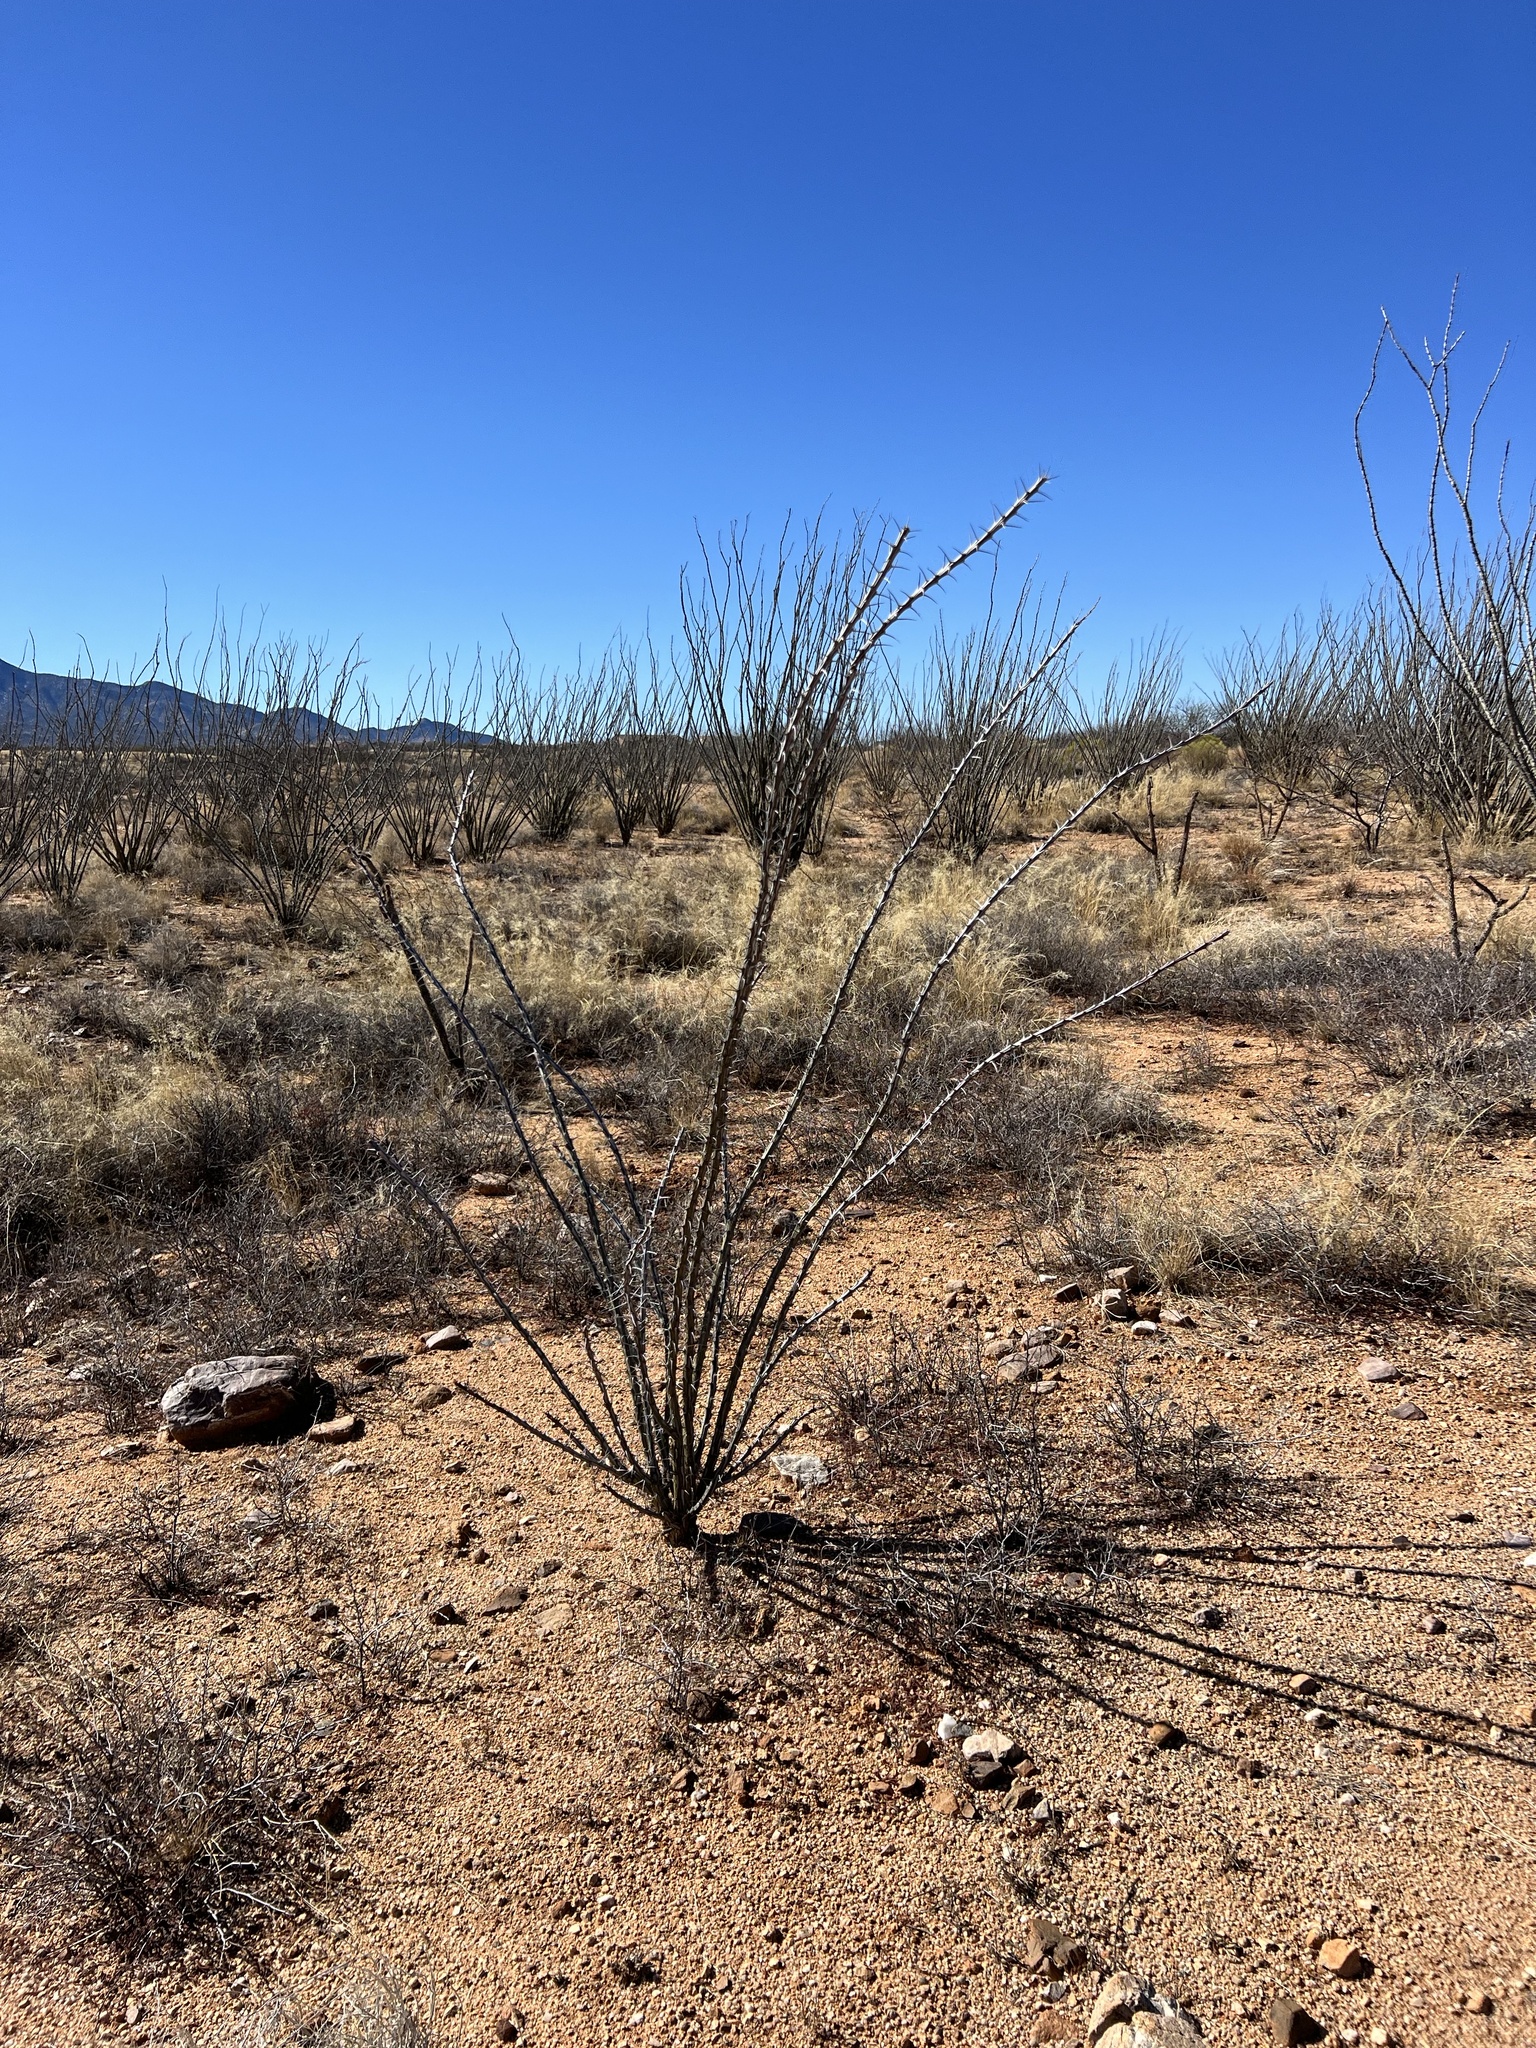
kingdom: Plantae
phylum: Tracheophyta
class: Magnoliopsida
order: Ericales
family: Fouquieriaceae
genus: Fouquieria
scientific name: Fouquieria splendens
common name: Vine-cactus
